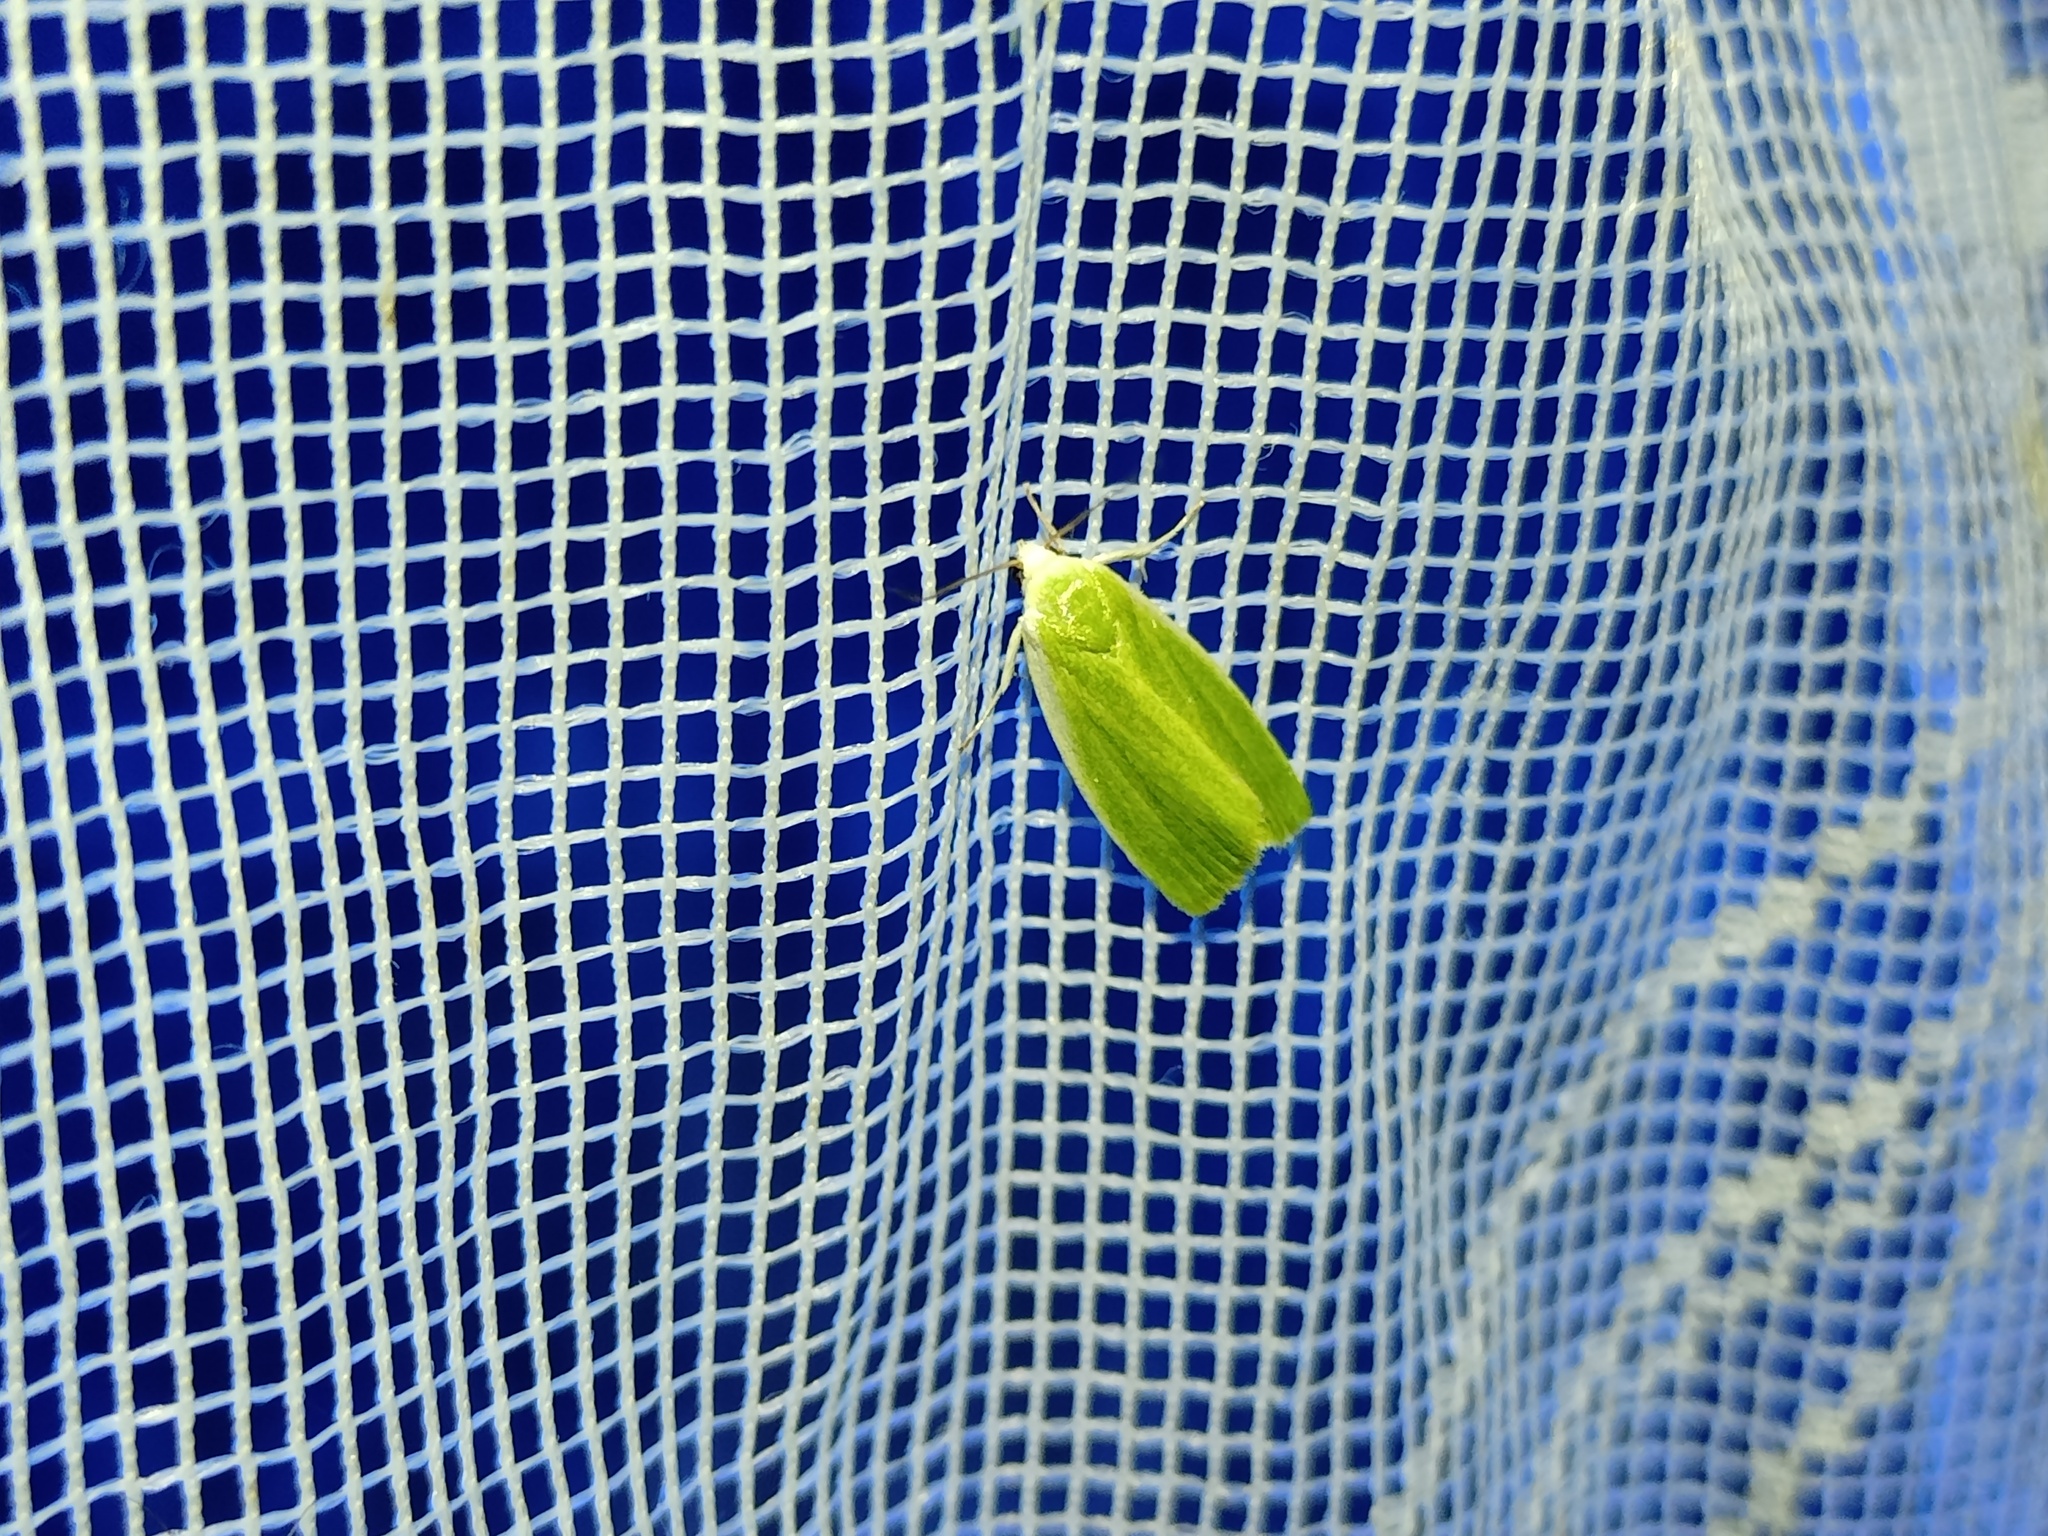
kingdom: Animalia
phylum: Arthropoda
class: Insecta
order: Lepidoptera
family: Nolidae
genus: Earias
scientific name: Earias clorana
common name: Cream-bordered green pea
